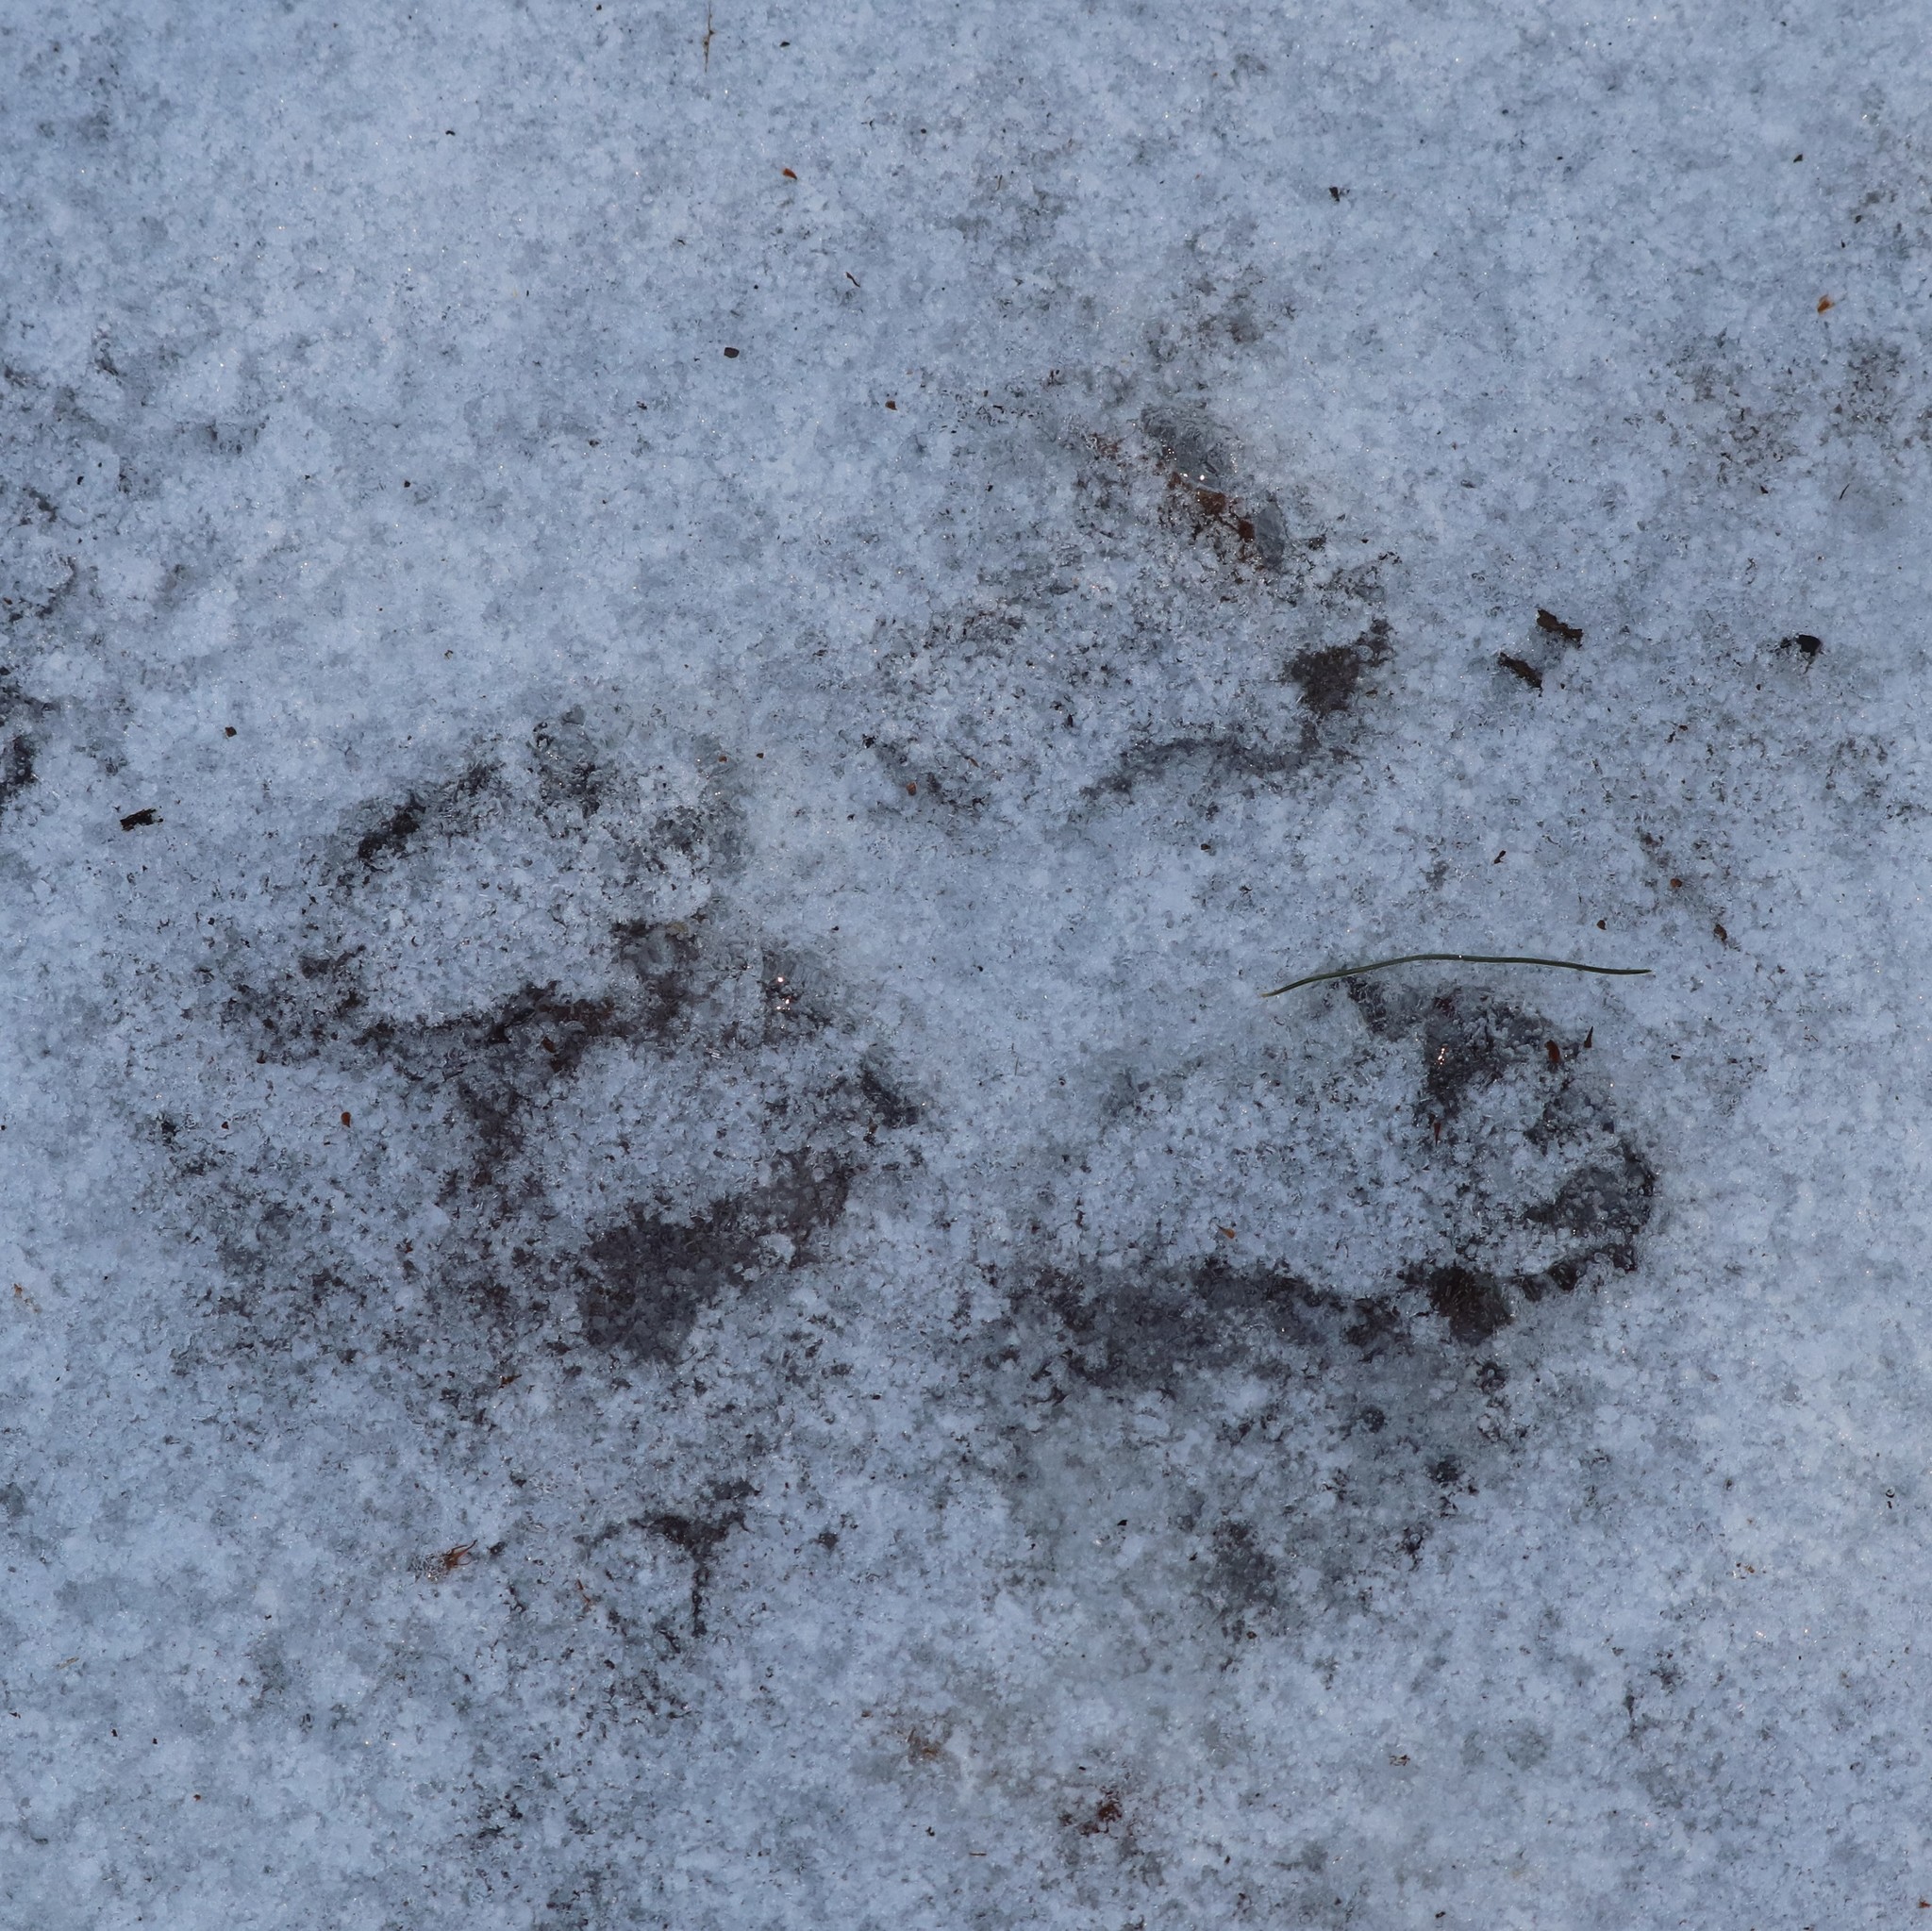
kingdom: Animalia
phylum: Chordata
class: Mammalia
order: Rodentia
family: Sciuridae
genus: Sciurus
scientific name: Sciurus carolinensis
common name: Eastern gray squirrel
